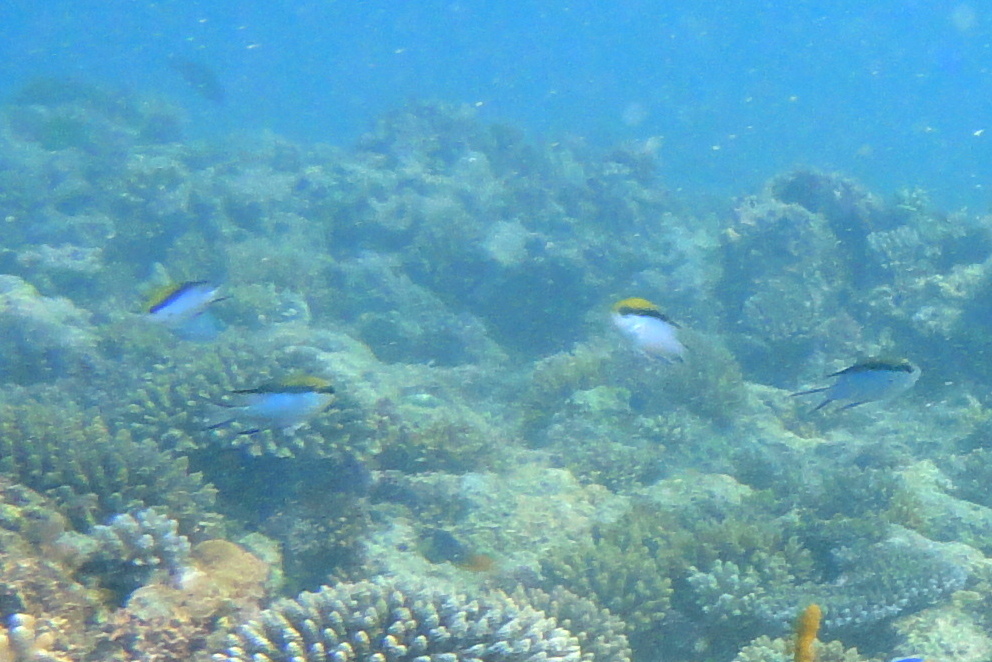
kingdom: Animalia
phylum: Chordata
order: Perciformes
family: Pomacentridae
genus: Chromis
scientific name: Chromis nitida
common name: Barrier reef chromis
